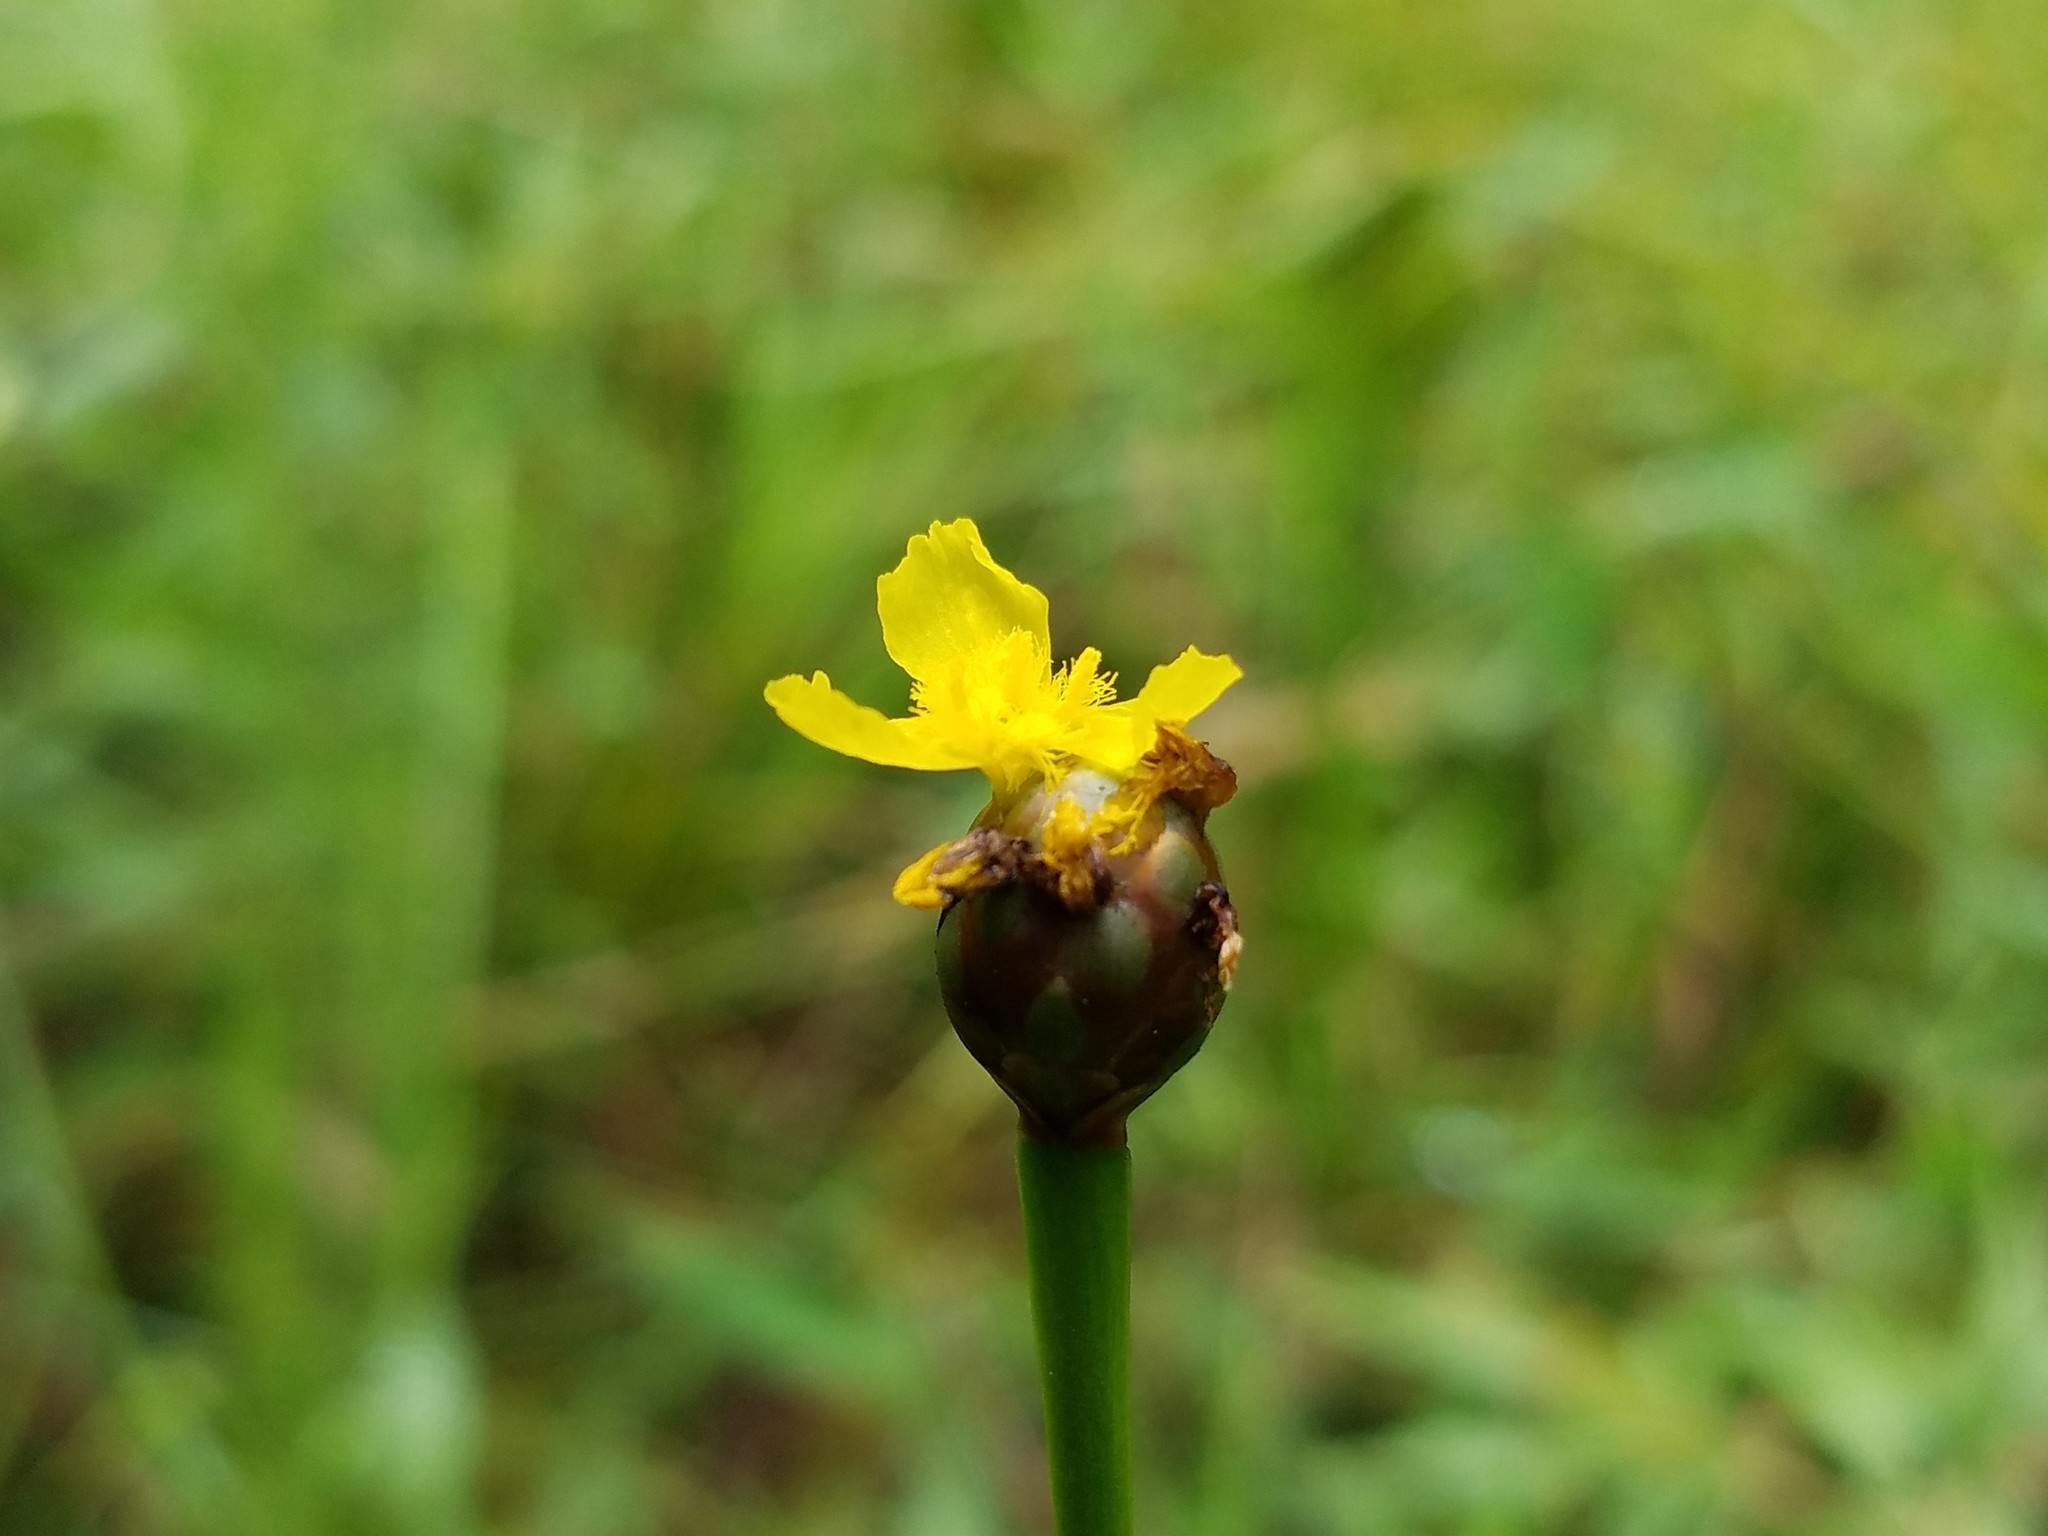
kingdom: Plantae
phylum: Tracheophyta
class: Liliopsida
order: Poales
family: Xyridaceae
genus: Xyris
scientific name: Xyris difformis
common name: Bog yellow-eyed-grass
